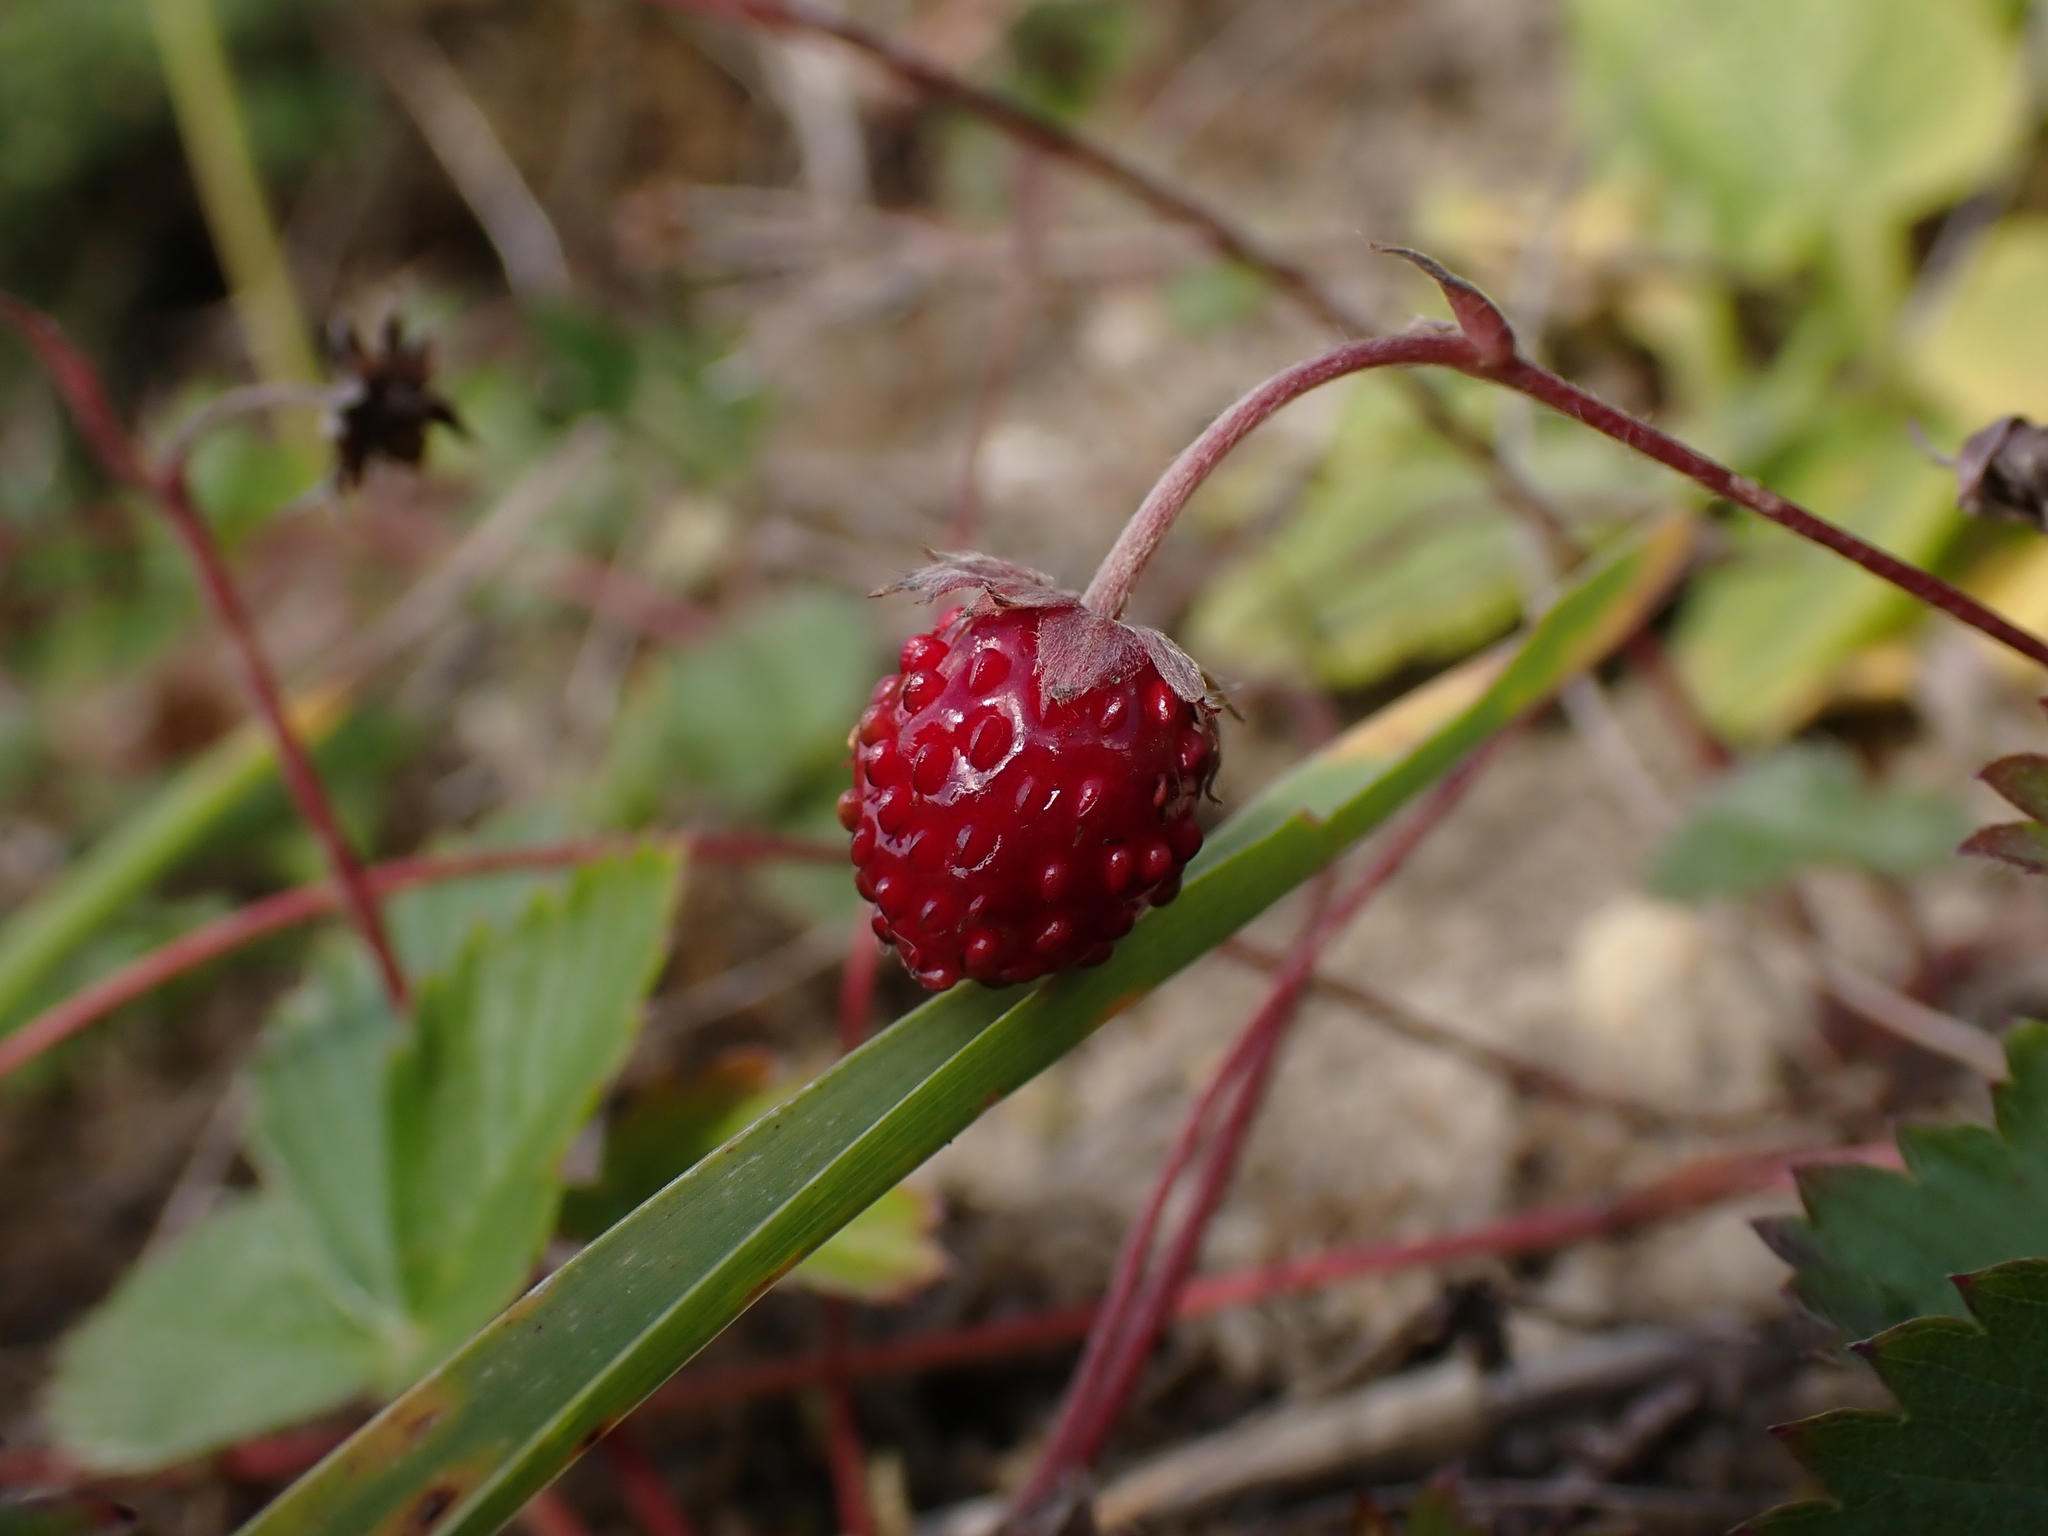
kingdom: Plantae
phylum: Tracheophyta
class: Magnoliopsida
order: Rosales
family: Rosaceae
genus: Fragaria
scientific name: Fragaria vesca
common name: Wild strawberry
